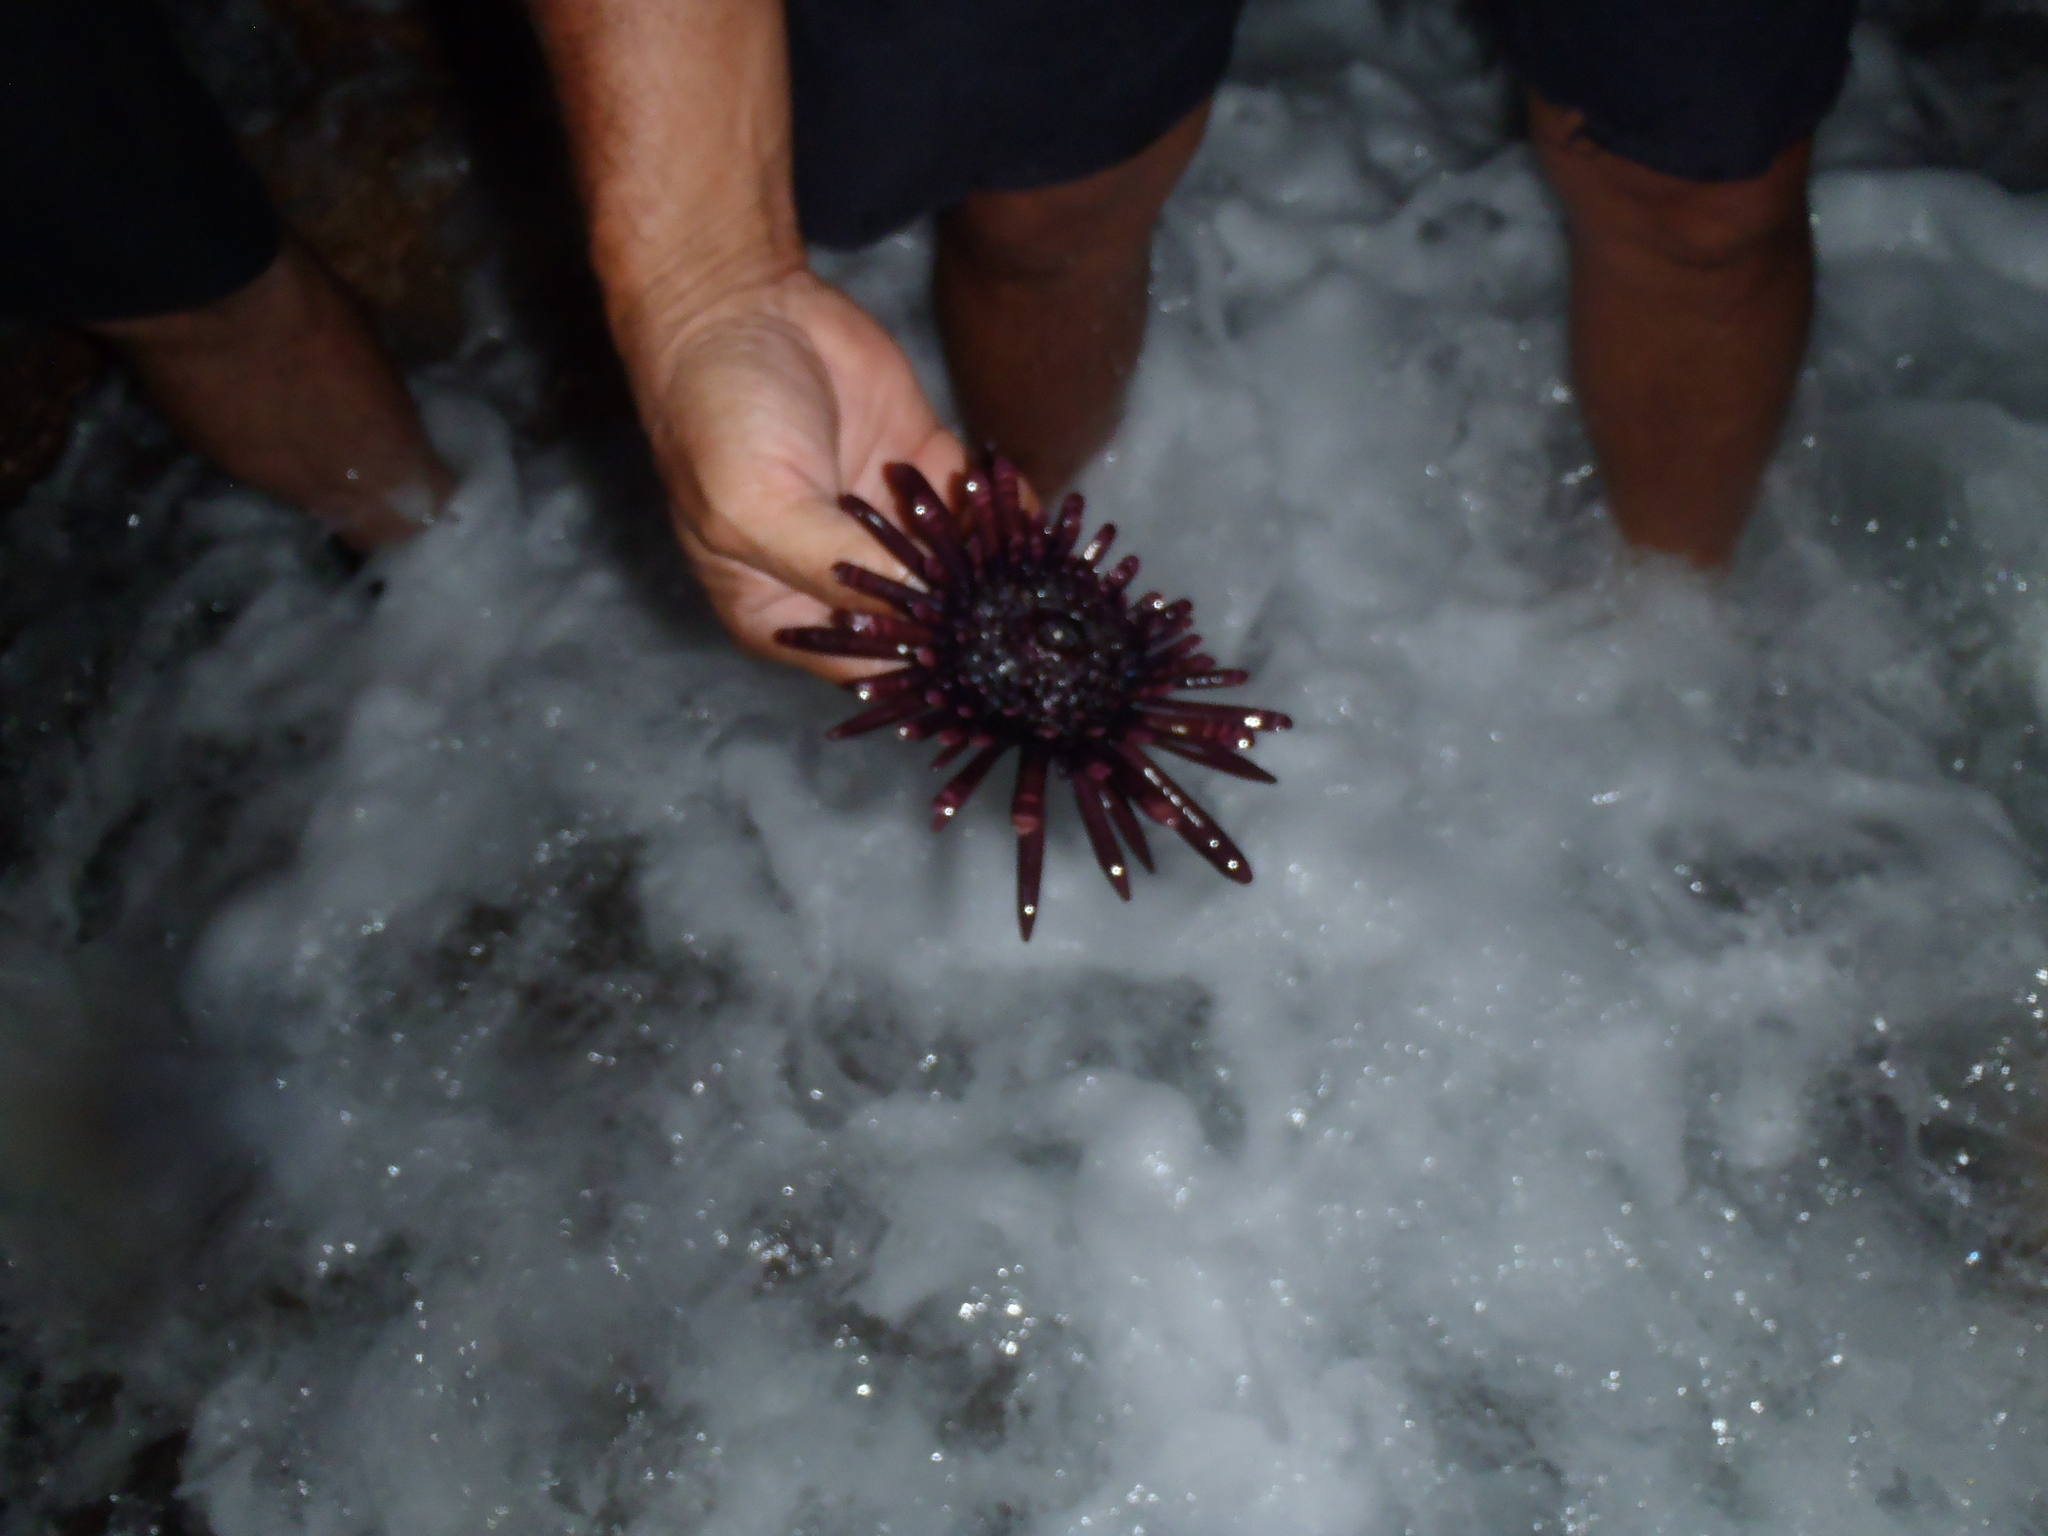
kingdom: Animalia
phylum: Echinodermata
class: Echinoidea
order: Camarodonta
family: Echinometridae
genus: Heterocentrotus
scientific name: Heterocentrotus mamillatus
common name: Slate pencil urchin
